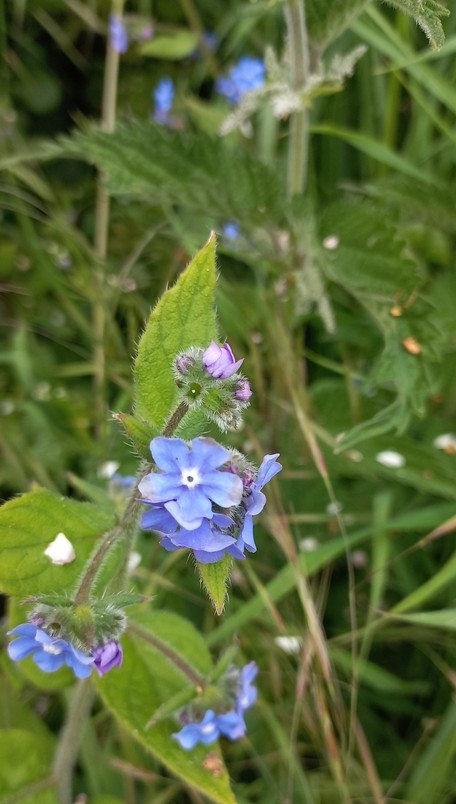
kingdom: Plantae
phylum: Tracheophyta
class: Magnoliopsida
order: Boraginales
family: Boraginaceae
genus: Pentaglottis
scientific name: Pentaglottis sempervirens
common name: Green alkanet
